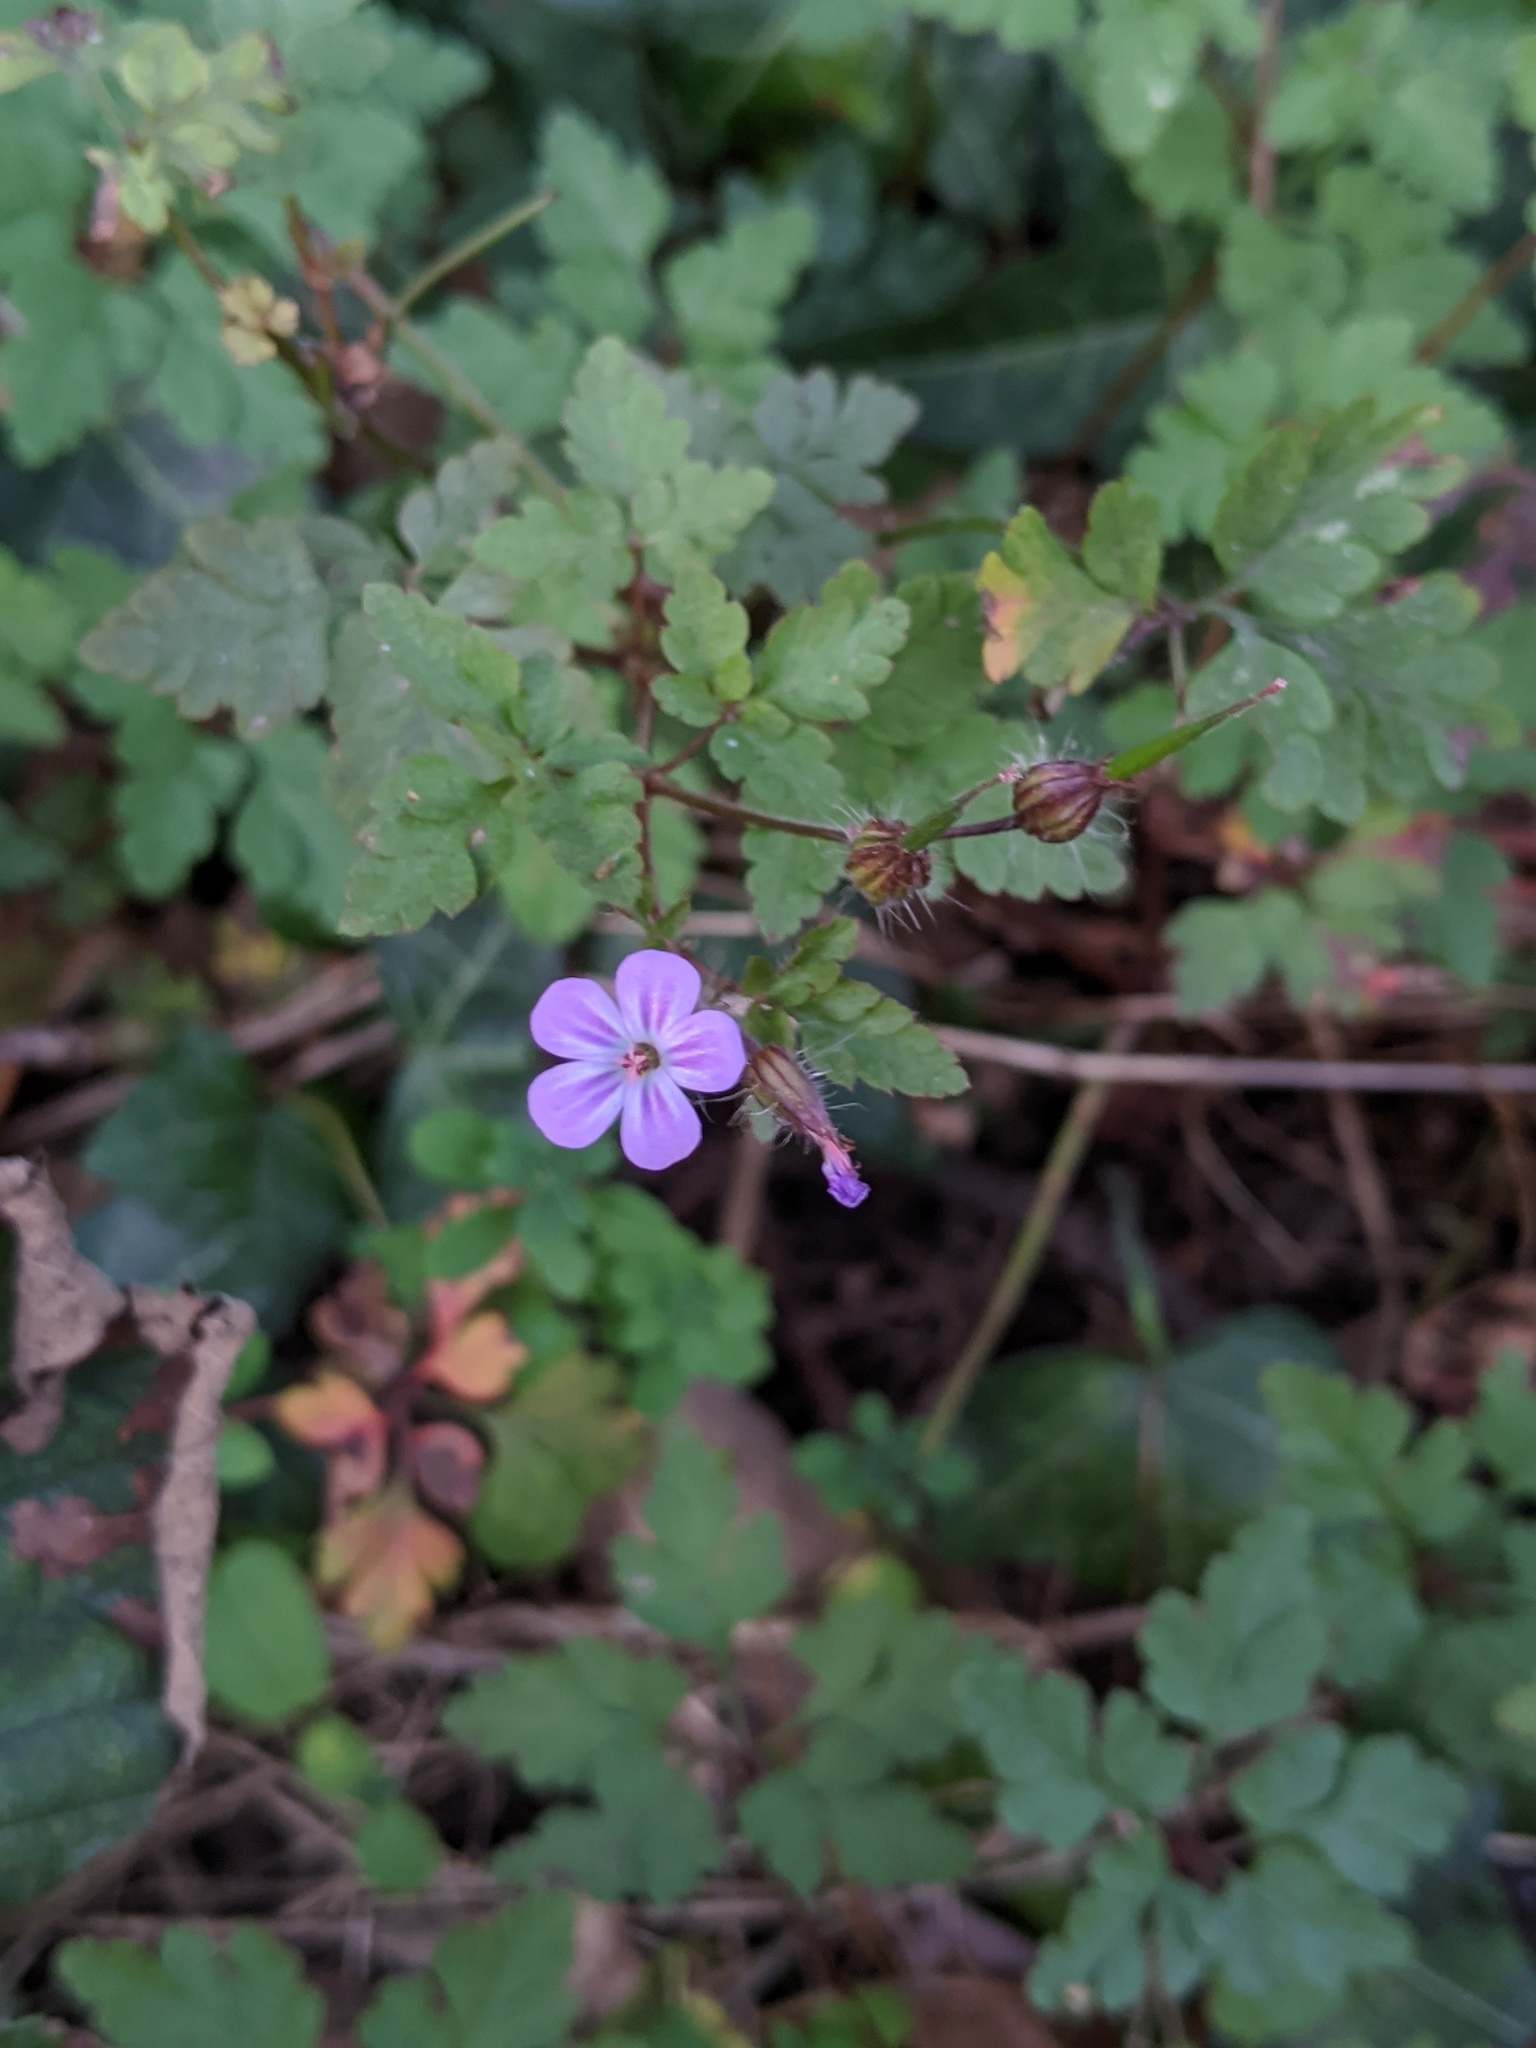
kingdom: Plantae
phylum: Tracheophyta
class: Magnoliopsida
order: Geraniales
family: Geraniaceae
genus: Geranium
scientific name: Geranium robertianum
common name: Herb-robert
